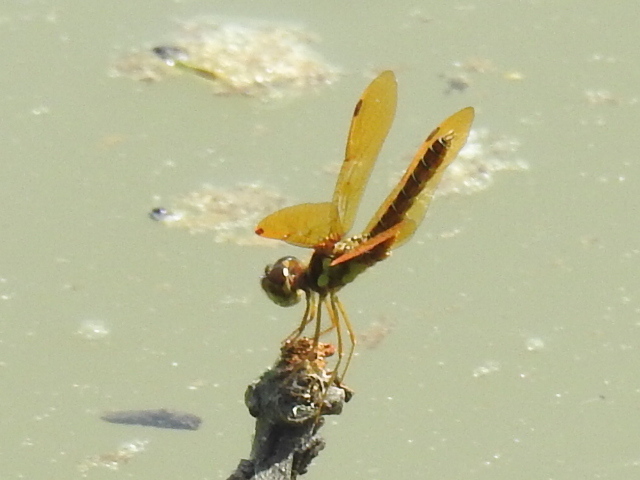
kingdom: Animalia
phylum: Arthropoda
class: Insecta
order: Odonata
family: Libellulidae
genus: Perithemis
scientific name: Perithemis tenera
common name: Eastern amberwing
